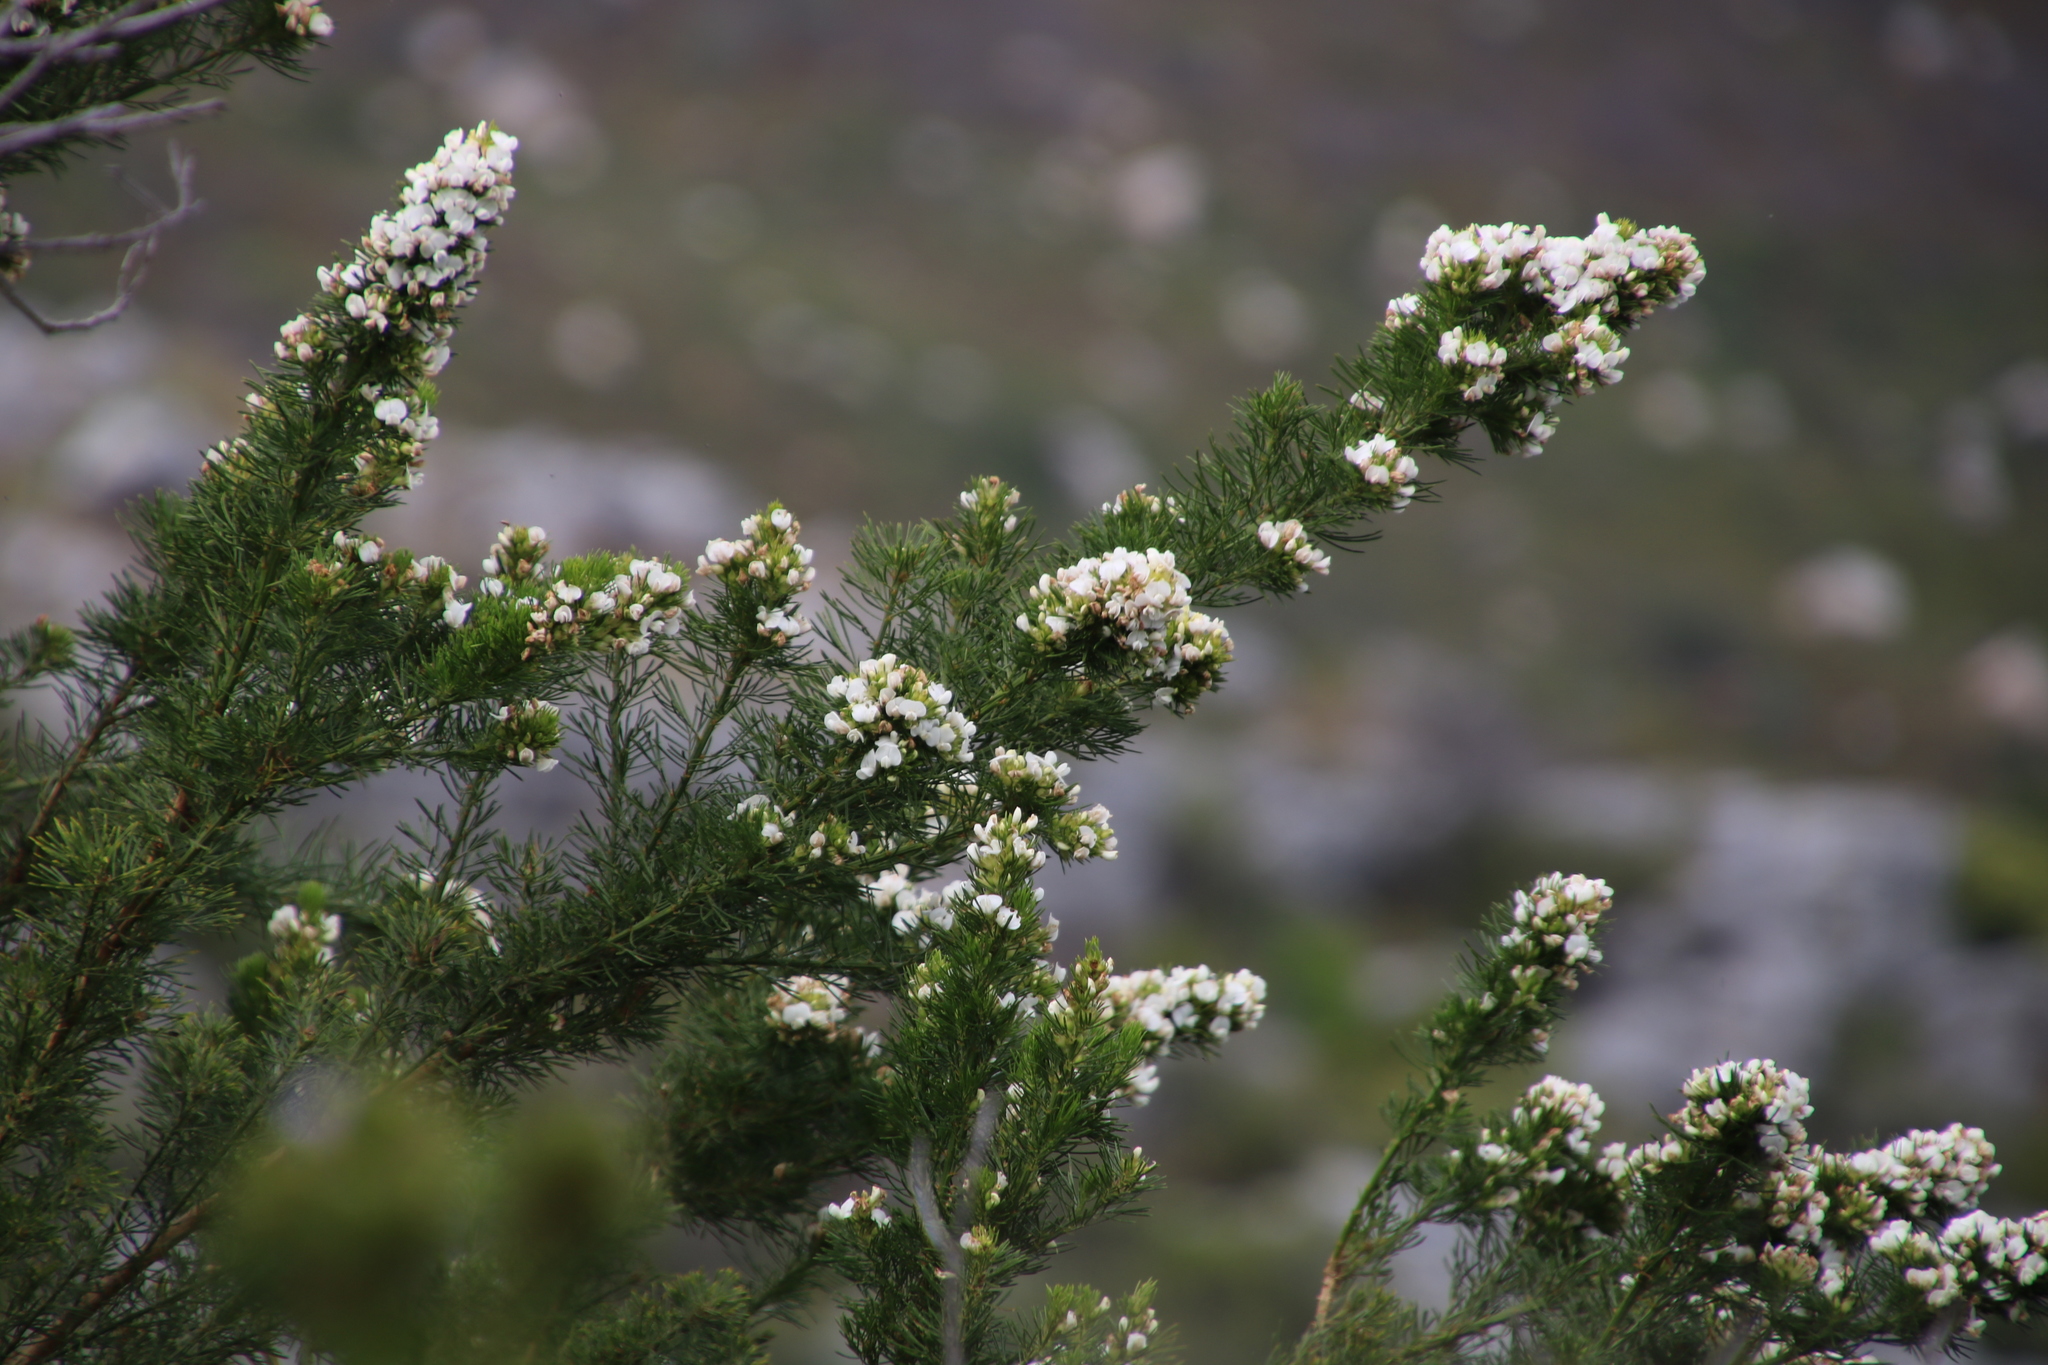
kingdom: Plantae
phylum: Tracheophyta
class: Magnoliopsida
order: Fabales
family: Fabaceae
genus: Psoralea
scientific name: Psoralea pinnata
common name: African scurfpea
